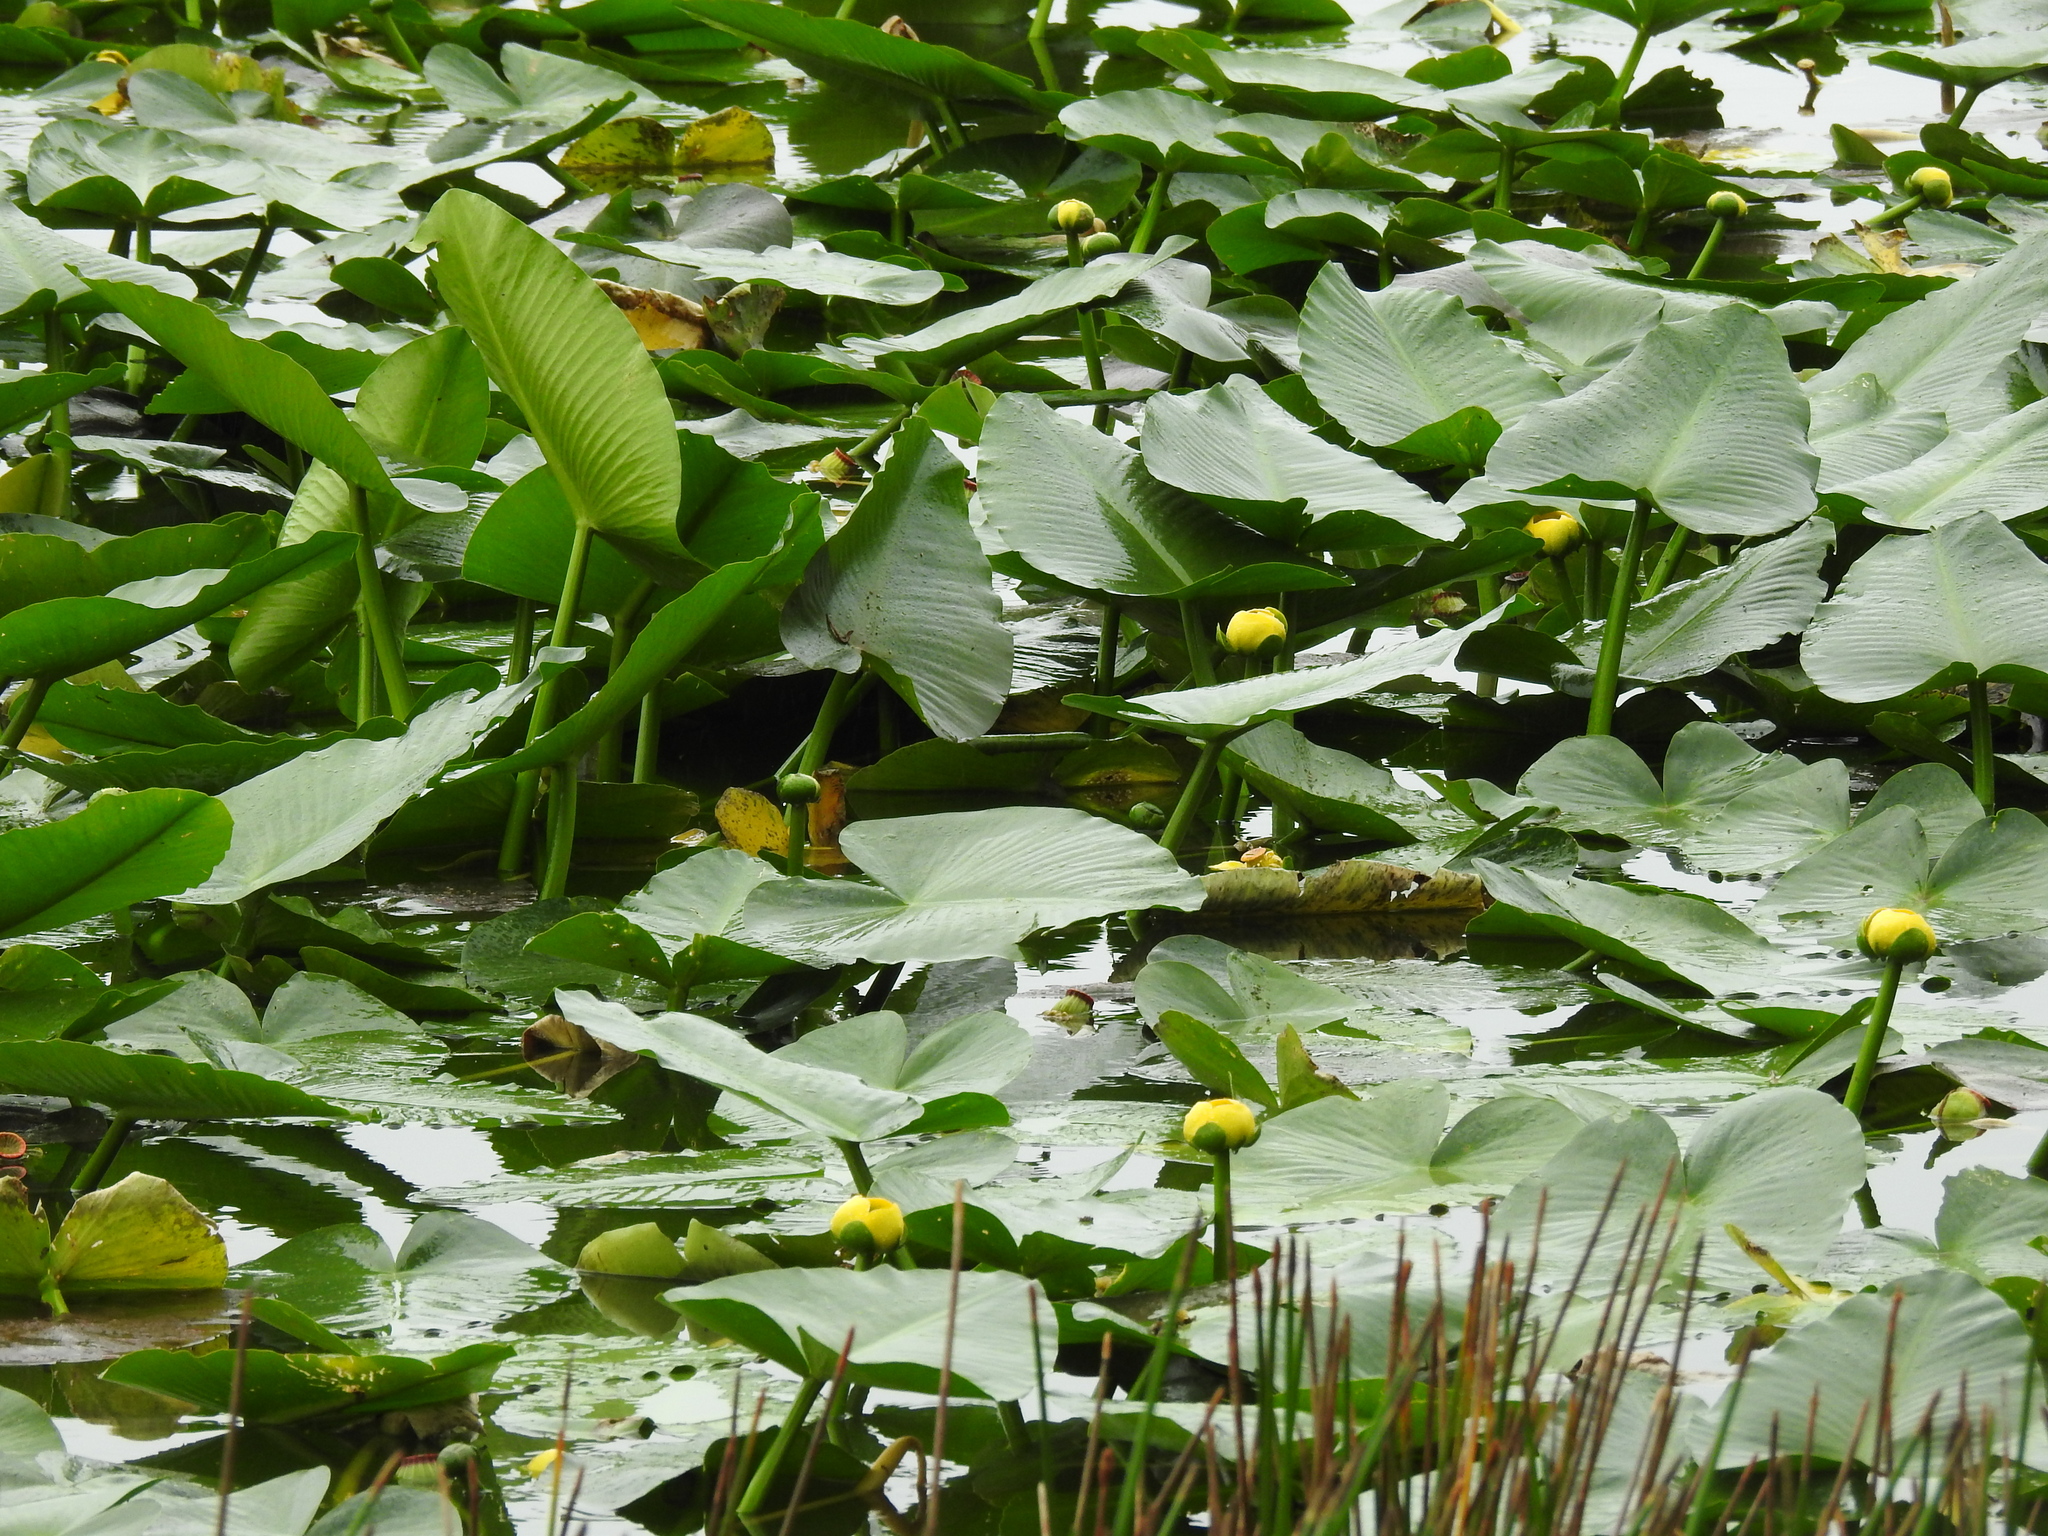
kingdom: Plantae
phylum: Tracheophyta
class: Magnoliopsida
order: Nymphaeales
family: Nymphaeaceae
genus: Nuphar
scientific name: Nuphar advena
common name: Spatter-dock
